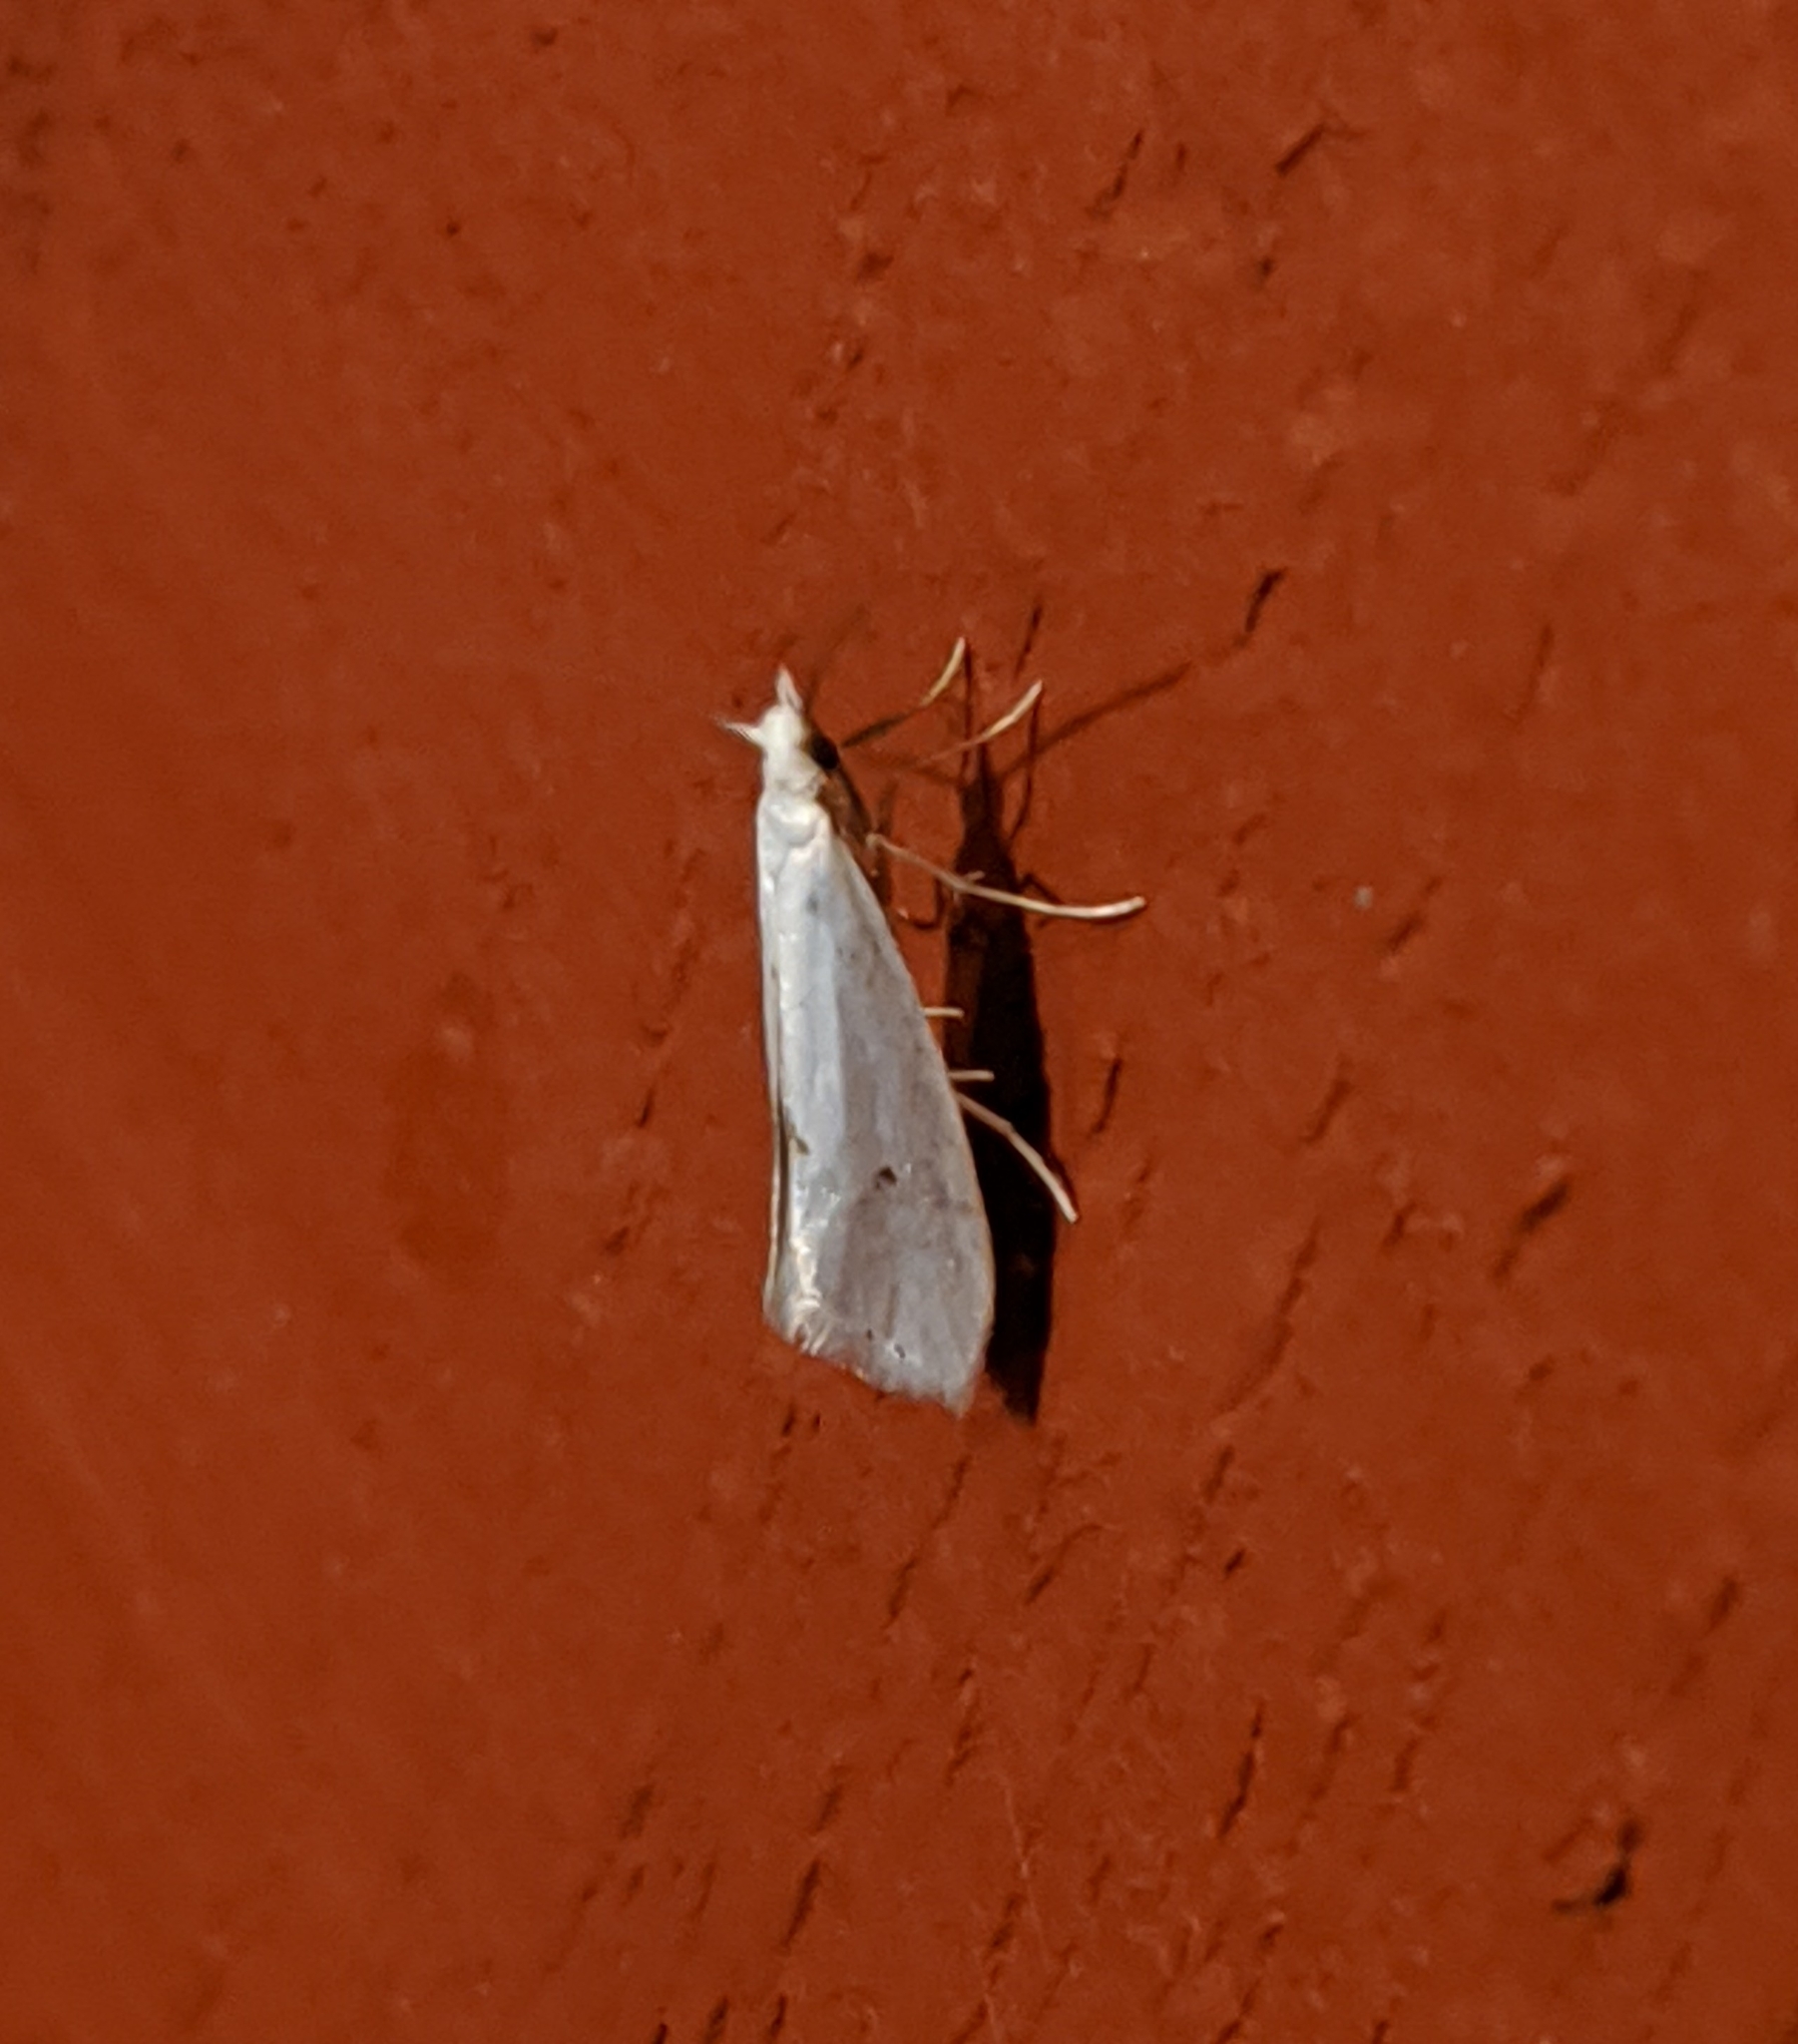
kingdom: Animalia
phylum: Arthropoda
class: Insecta
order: Lepidoptera
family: Yponomeutidae
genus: Eucalantica
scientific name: Eucalantica polita
